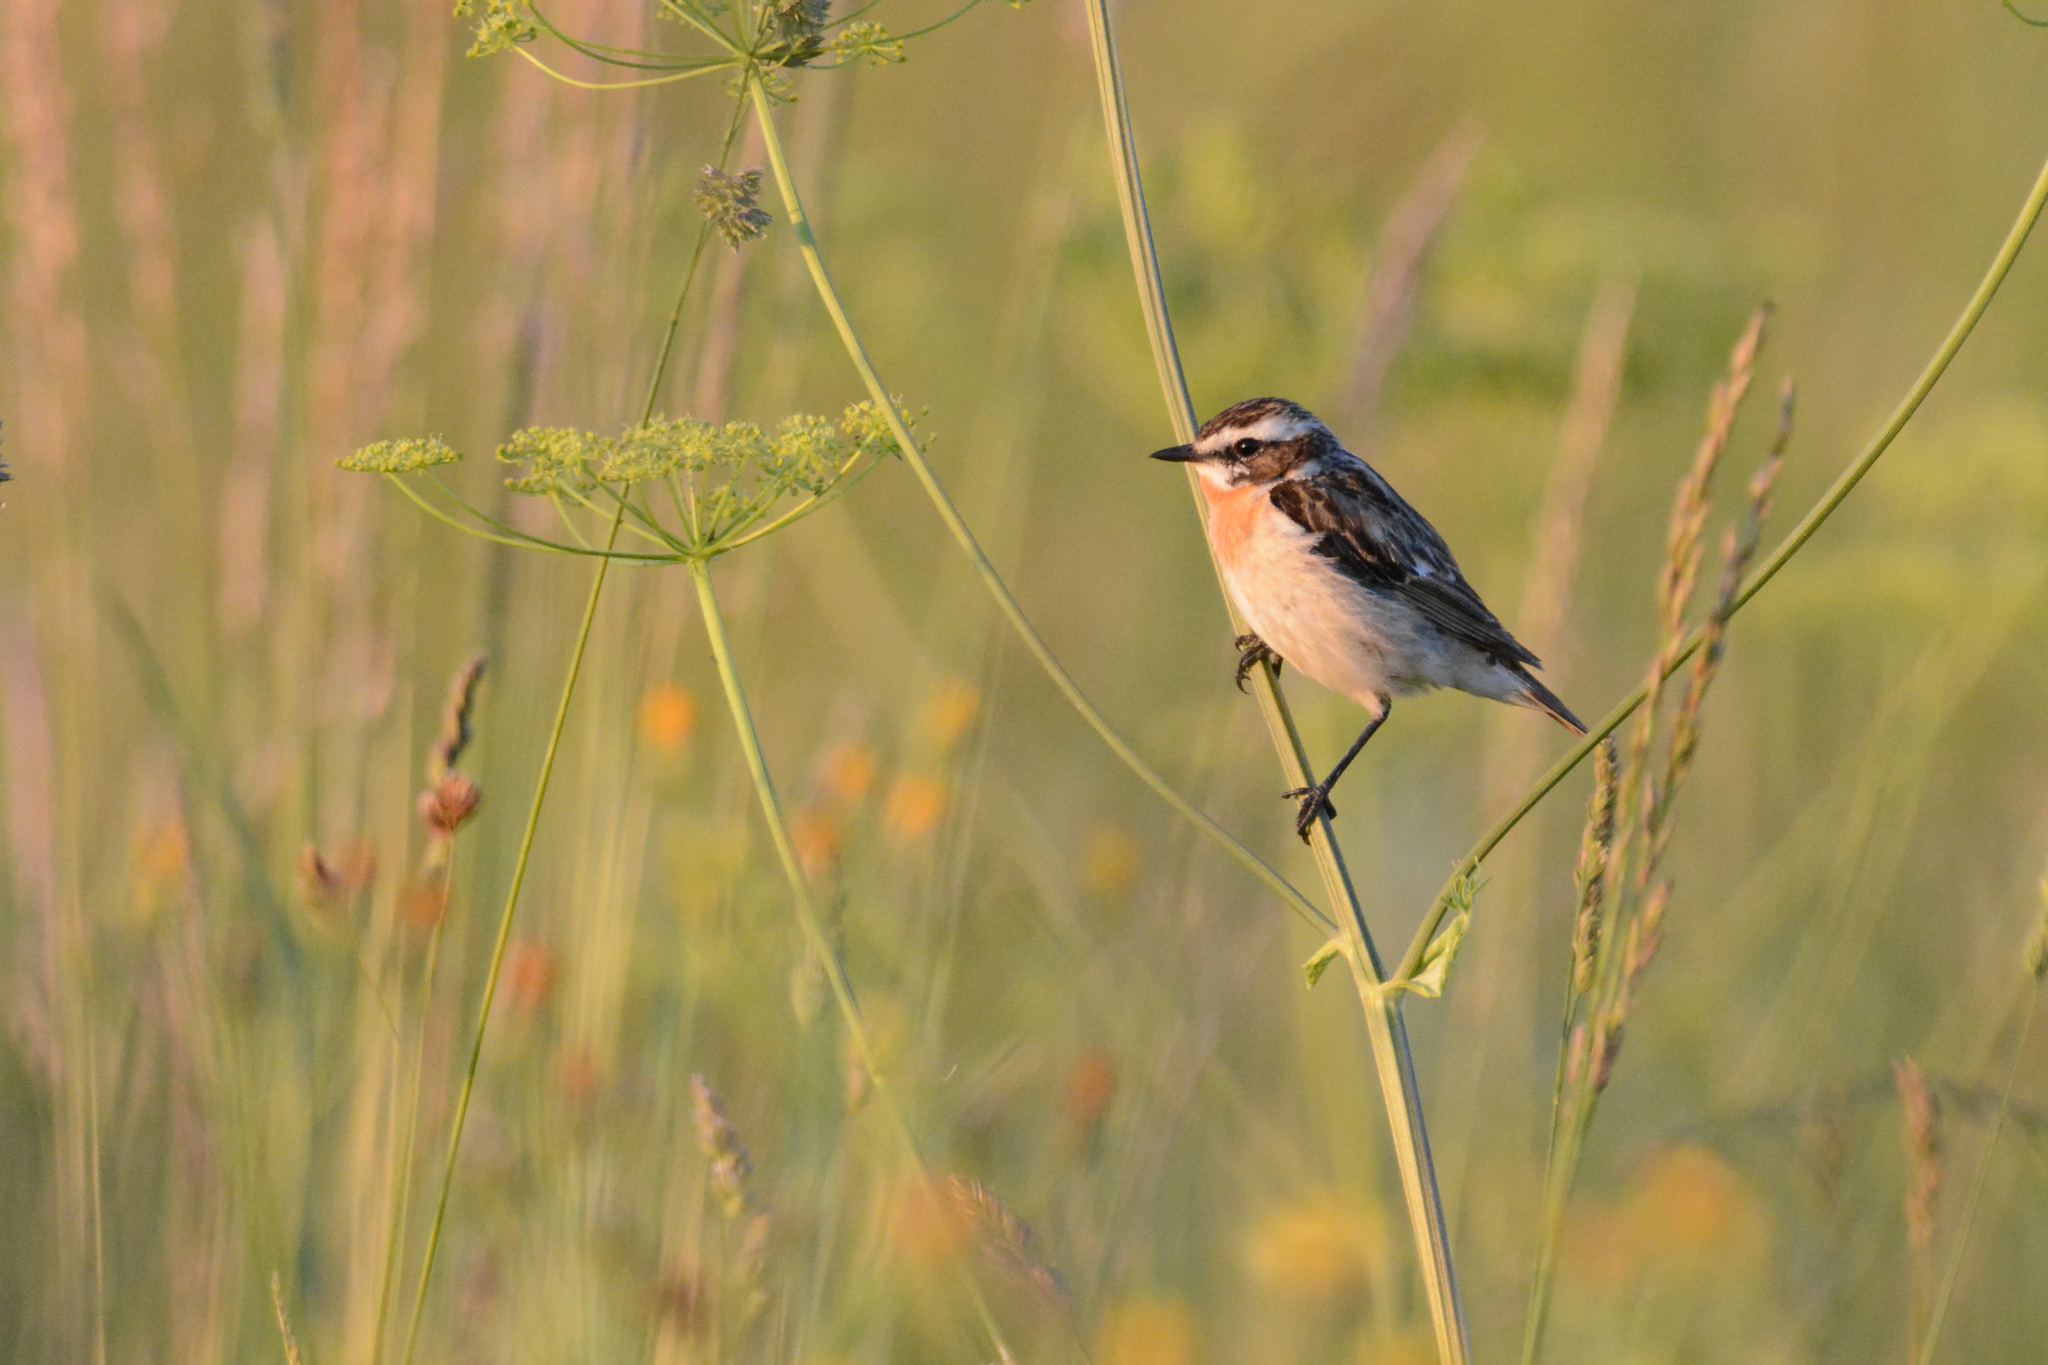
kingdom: Animalia
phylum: Chordata
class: Aves
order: Passeriformes
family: Muscicapidae
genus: Saxicola
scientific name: Saxicola rubetra
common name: Whinchat
